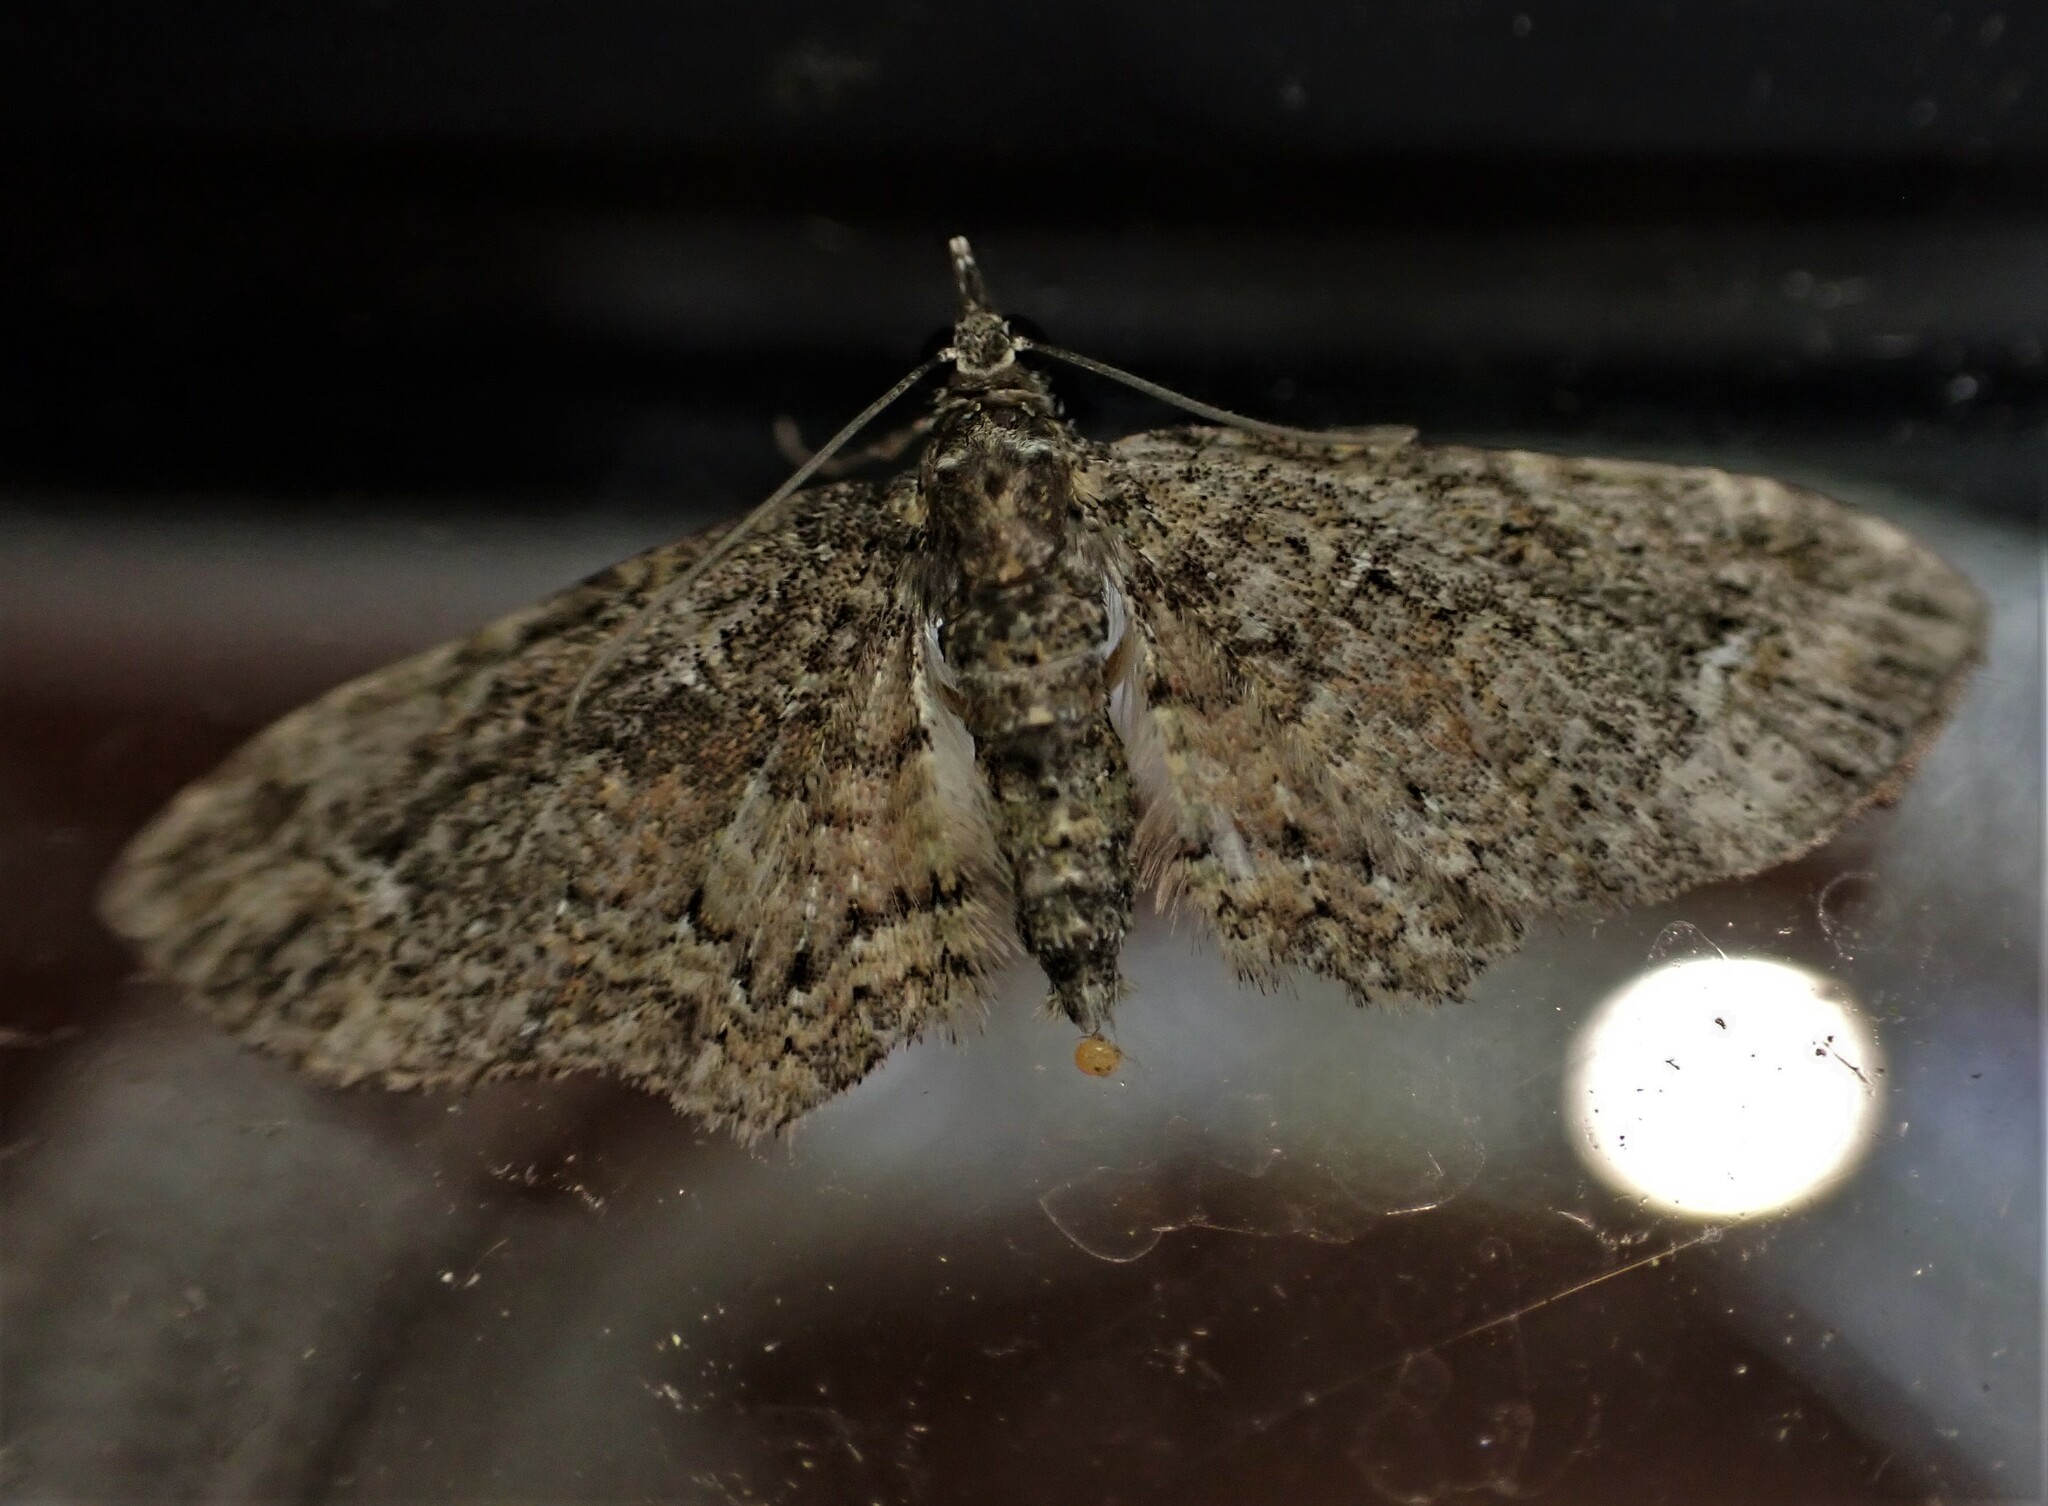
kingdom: Animalia
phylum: Arthropoda
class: Insecta
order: Lepidoptera
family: Geometridae
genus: Pasiphilodes
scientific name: Pasiphilodes testulata
